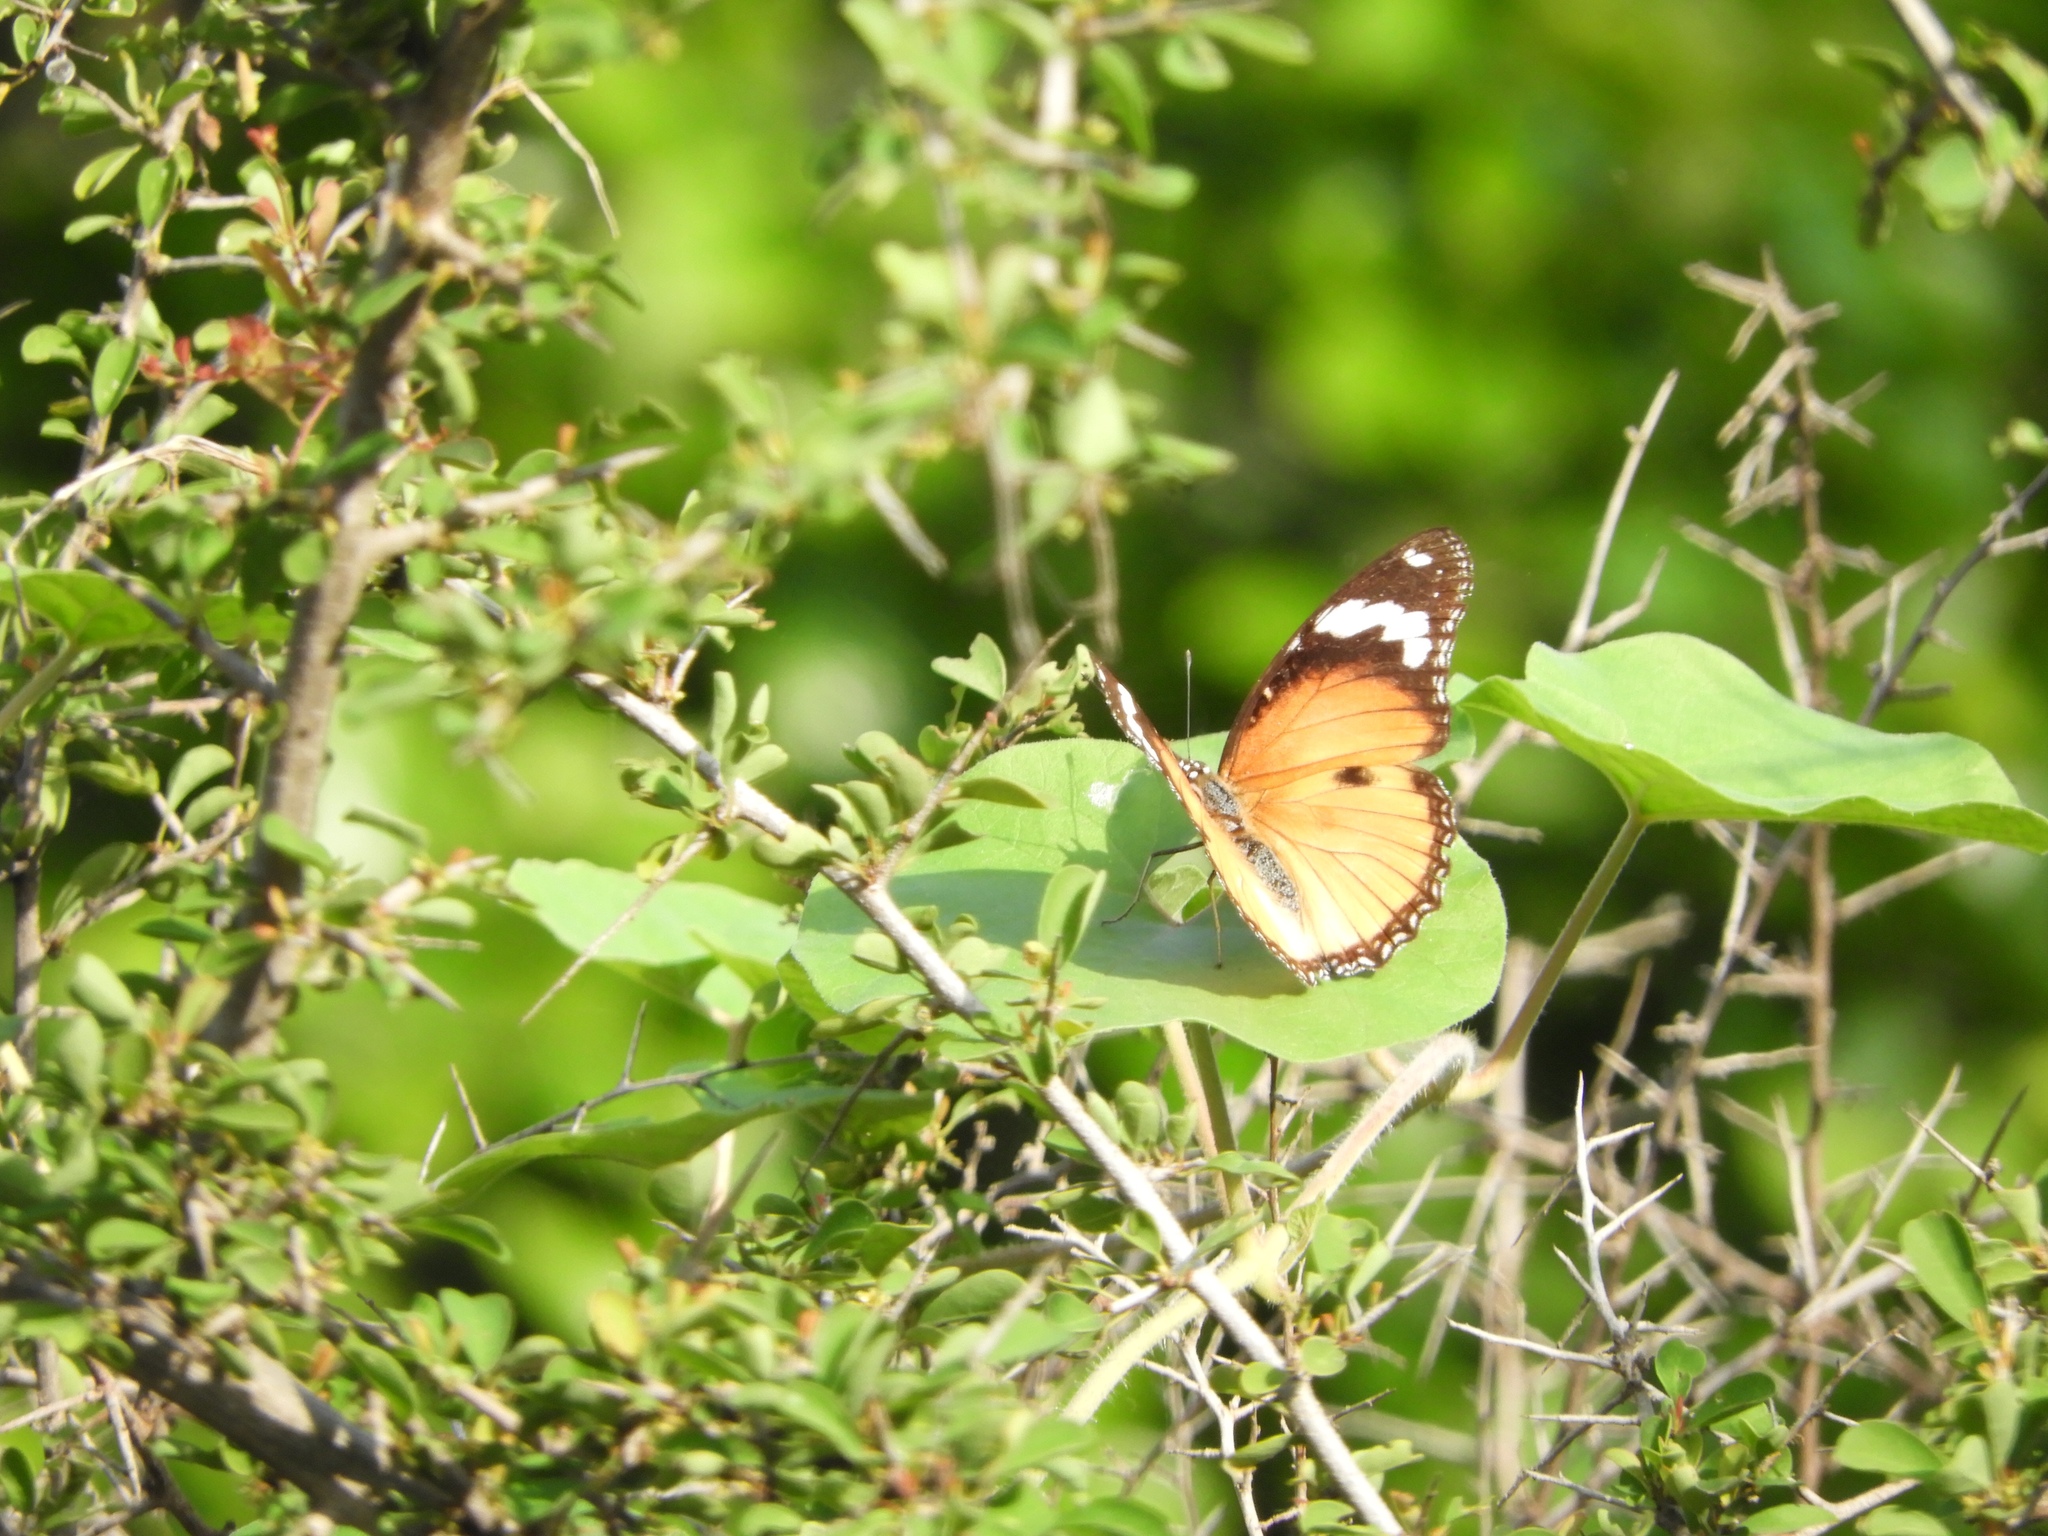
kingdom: Animalia
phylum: Arthropoda
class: Insecta
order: Lepidoptera
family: Nymphalidae
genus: Hypolimnas
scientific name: Hypolimnas misippus
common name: False plain tiger
